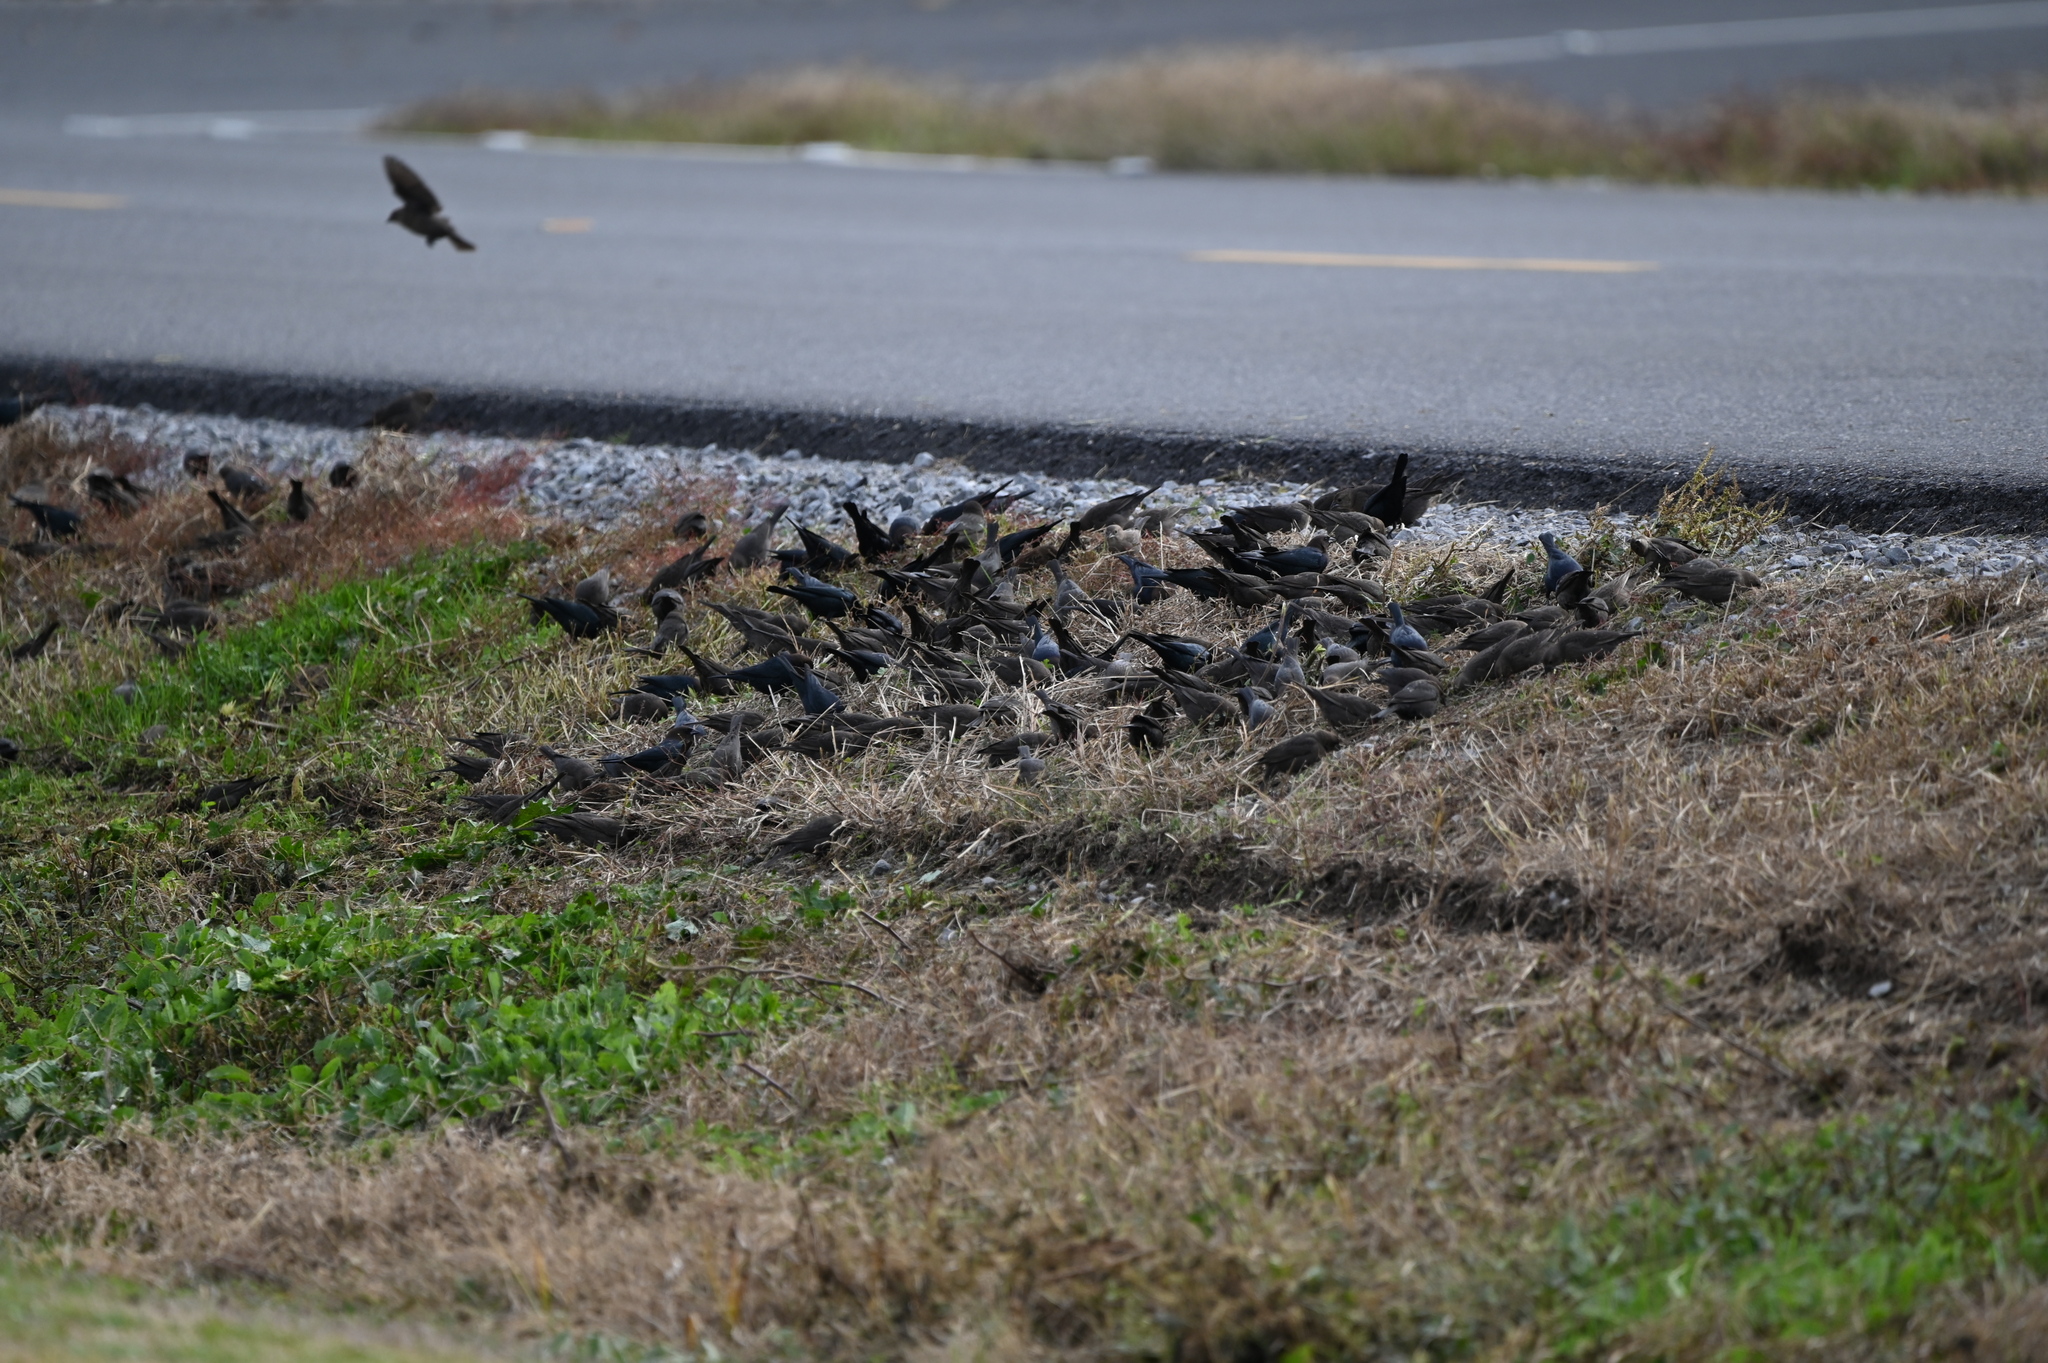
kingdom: Animalia
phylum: Chordata
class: Aves
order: Passeriformes
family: Icteridae
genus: Molothrus
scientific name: Molothrus ater
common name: Brown-headed cowbird
